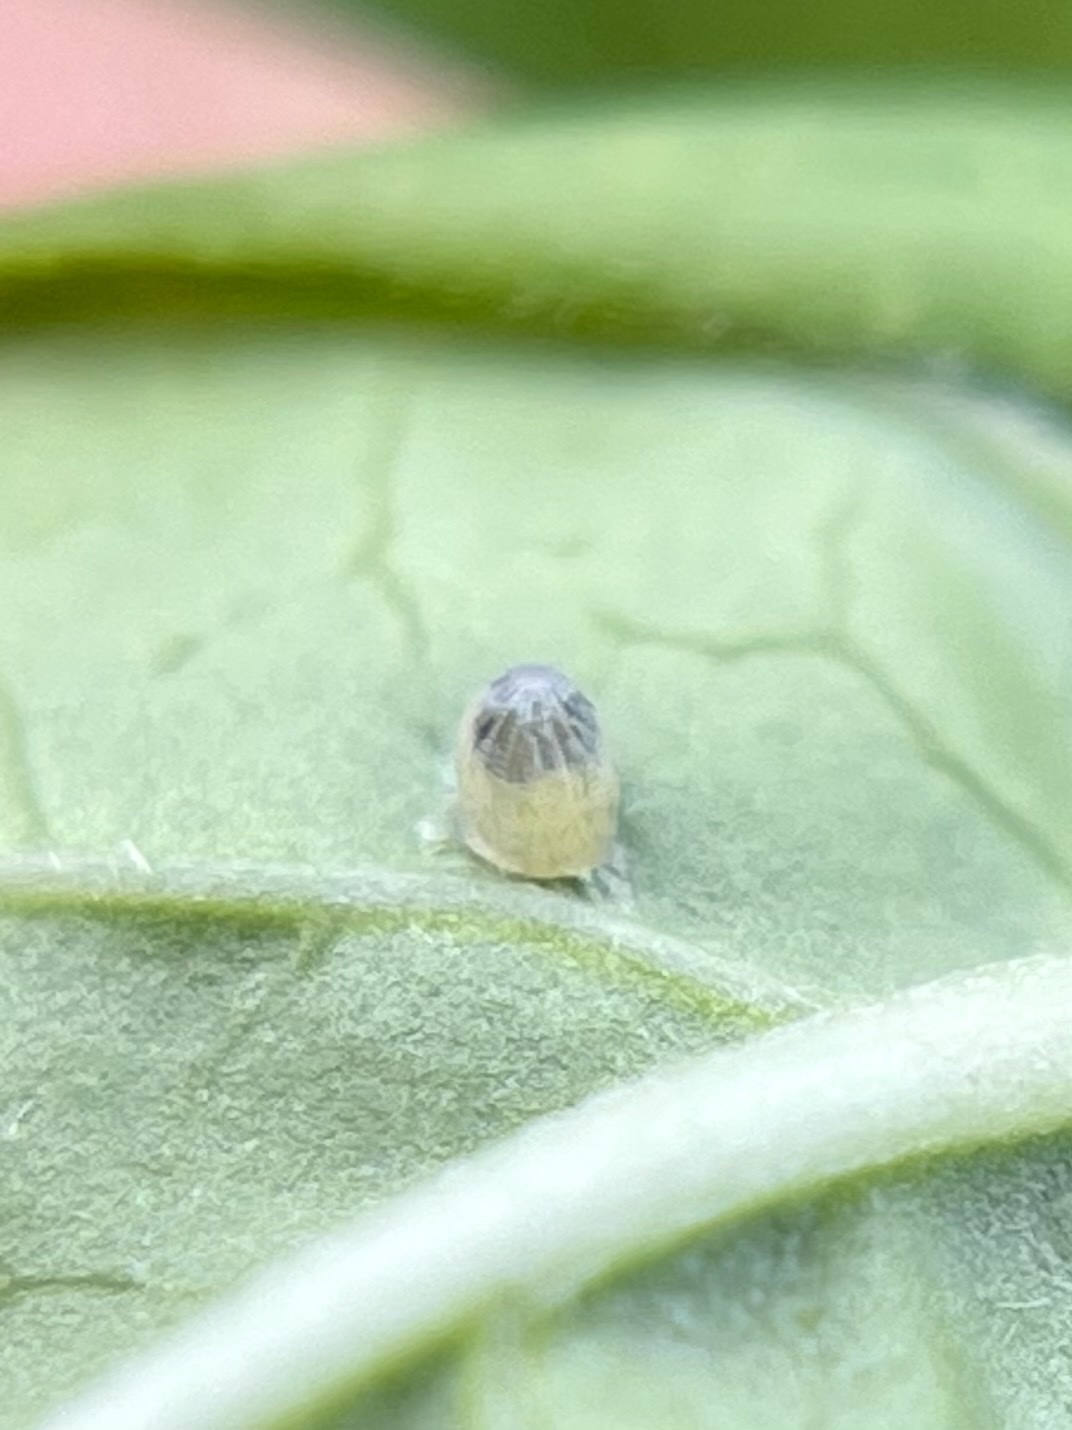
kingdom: Animalia
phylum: Arthropoda
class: Insecta
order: Lepidoptera
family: Nymphalidae
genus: Danaus
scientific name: Danaus plexippus
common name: Monarch
